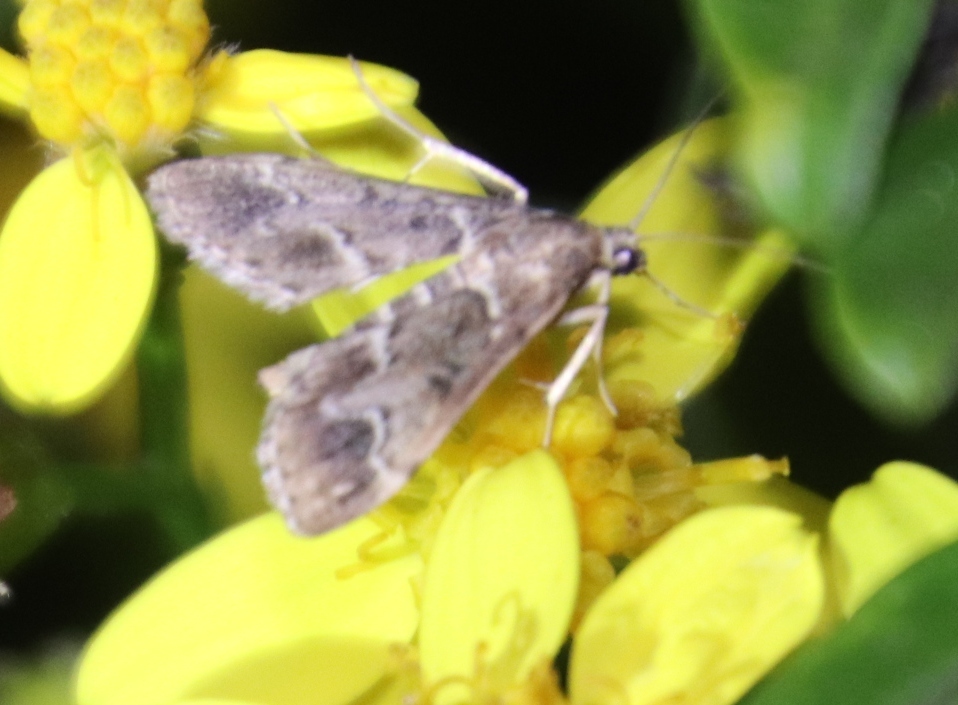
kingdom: Animalia
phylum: Arthropoda
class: Insecta
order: Lepidoptera
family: Crambidae
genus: Duponchelia
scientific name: Duponchelia fovealis
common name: Crambid moth
